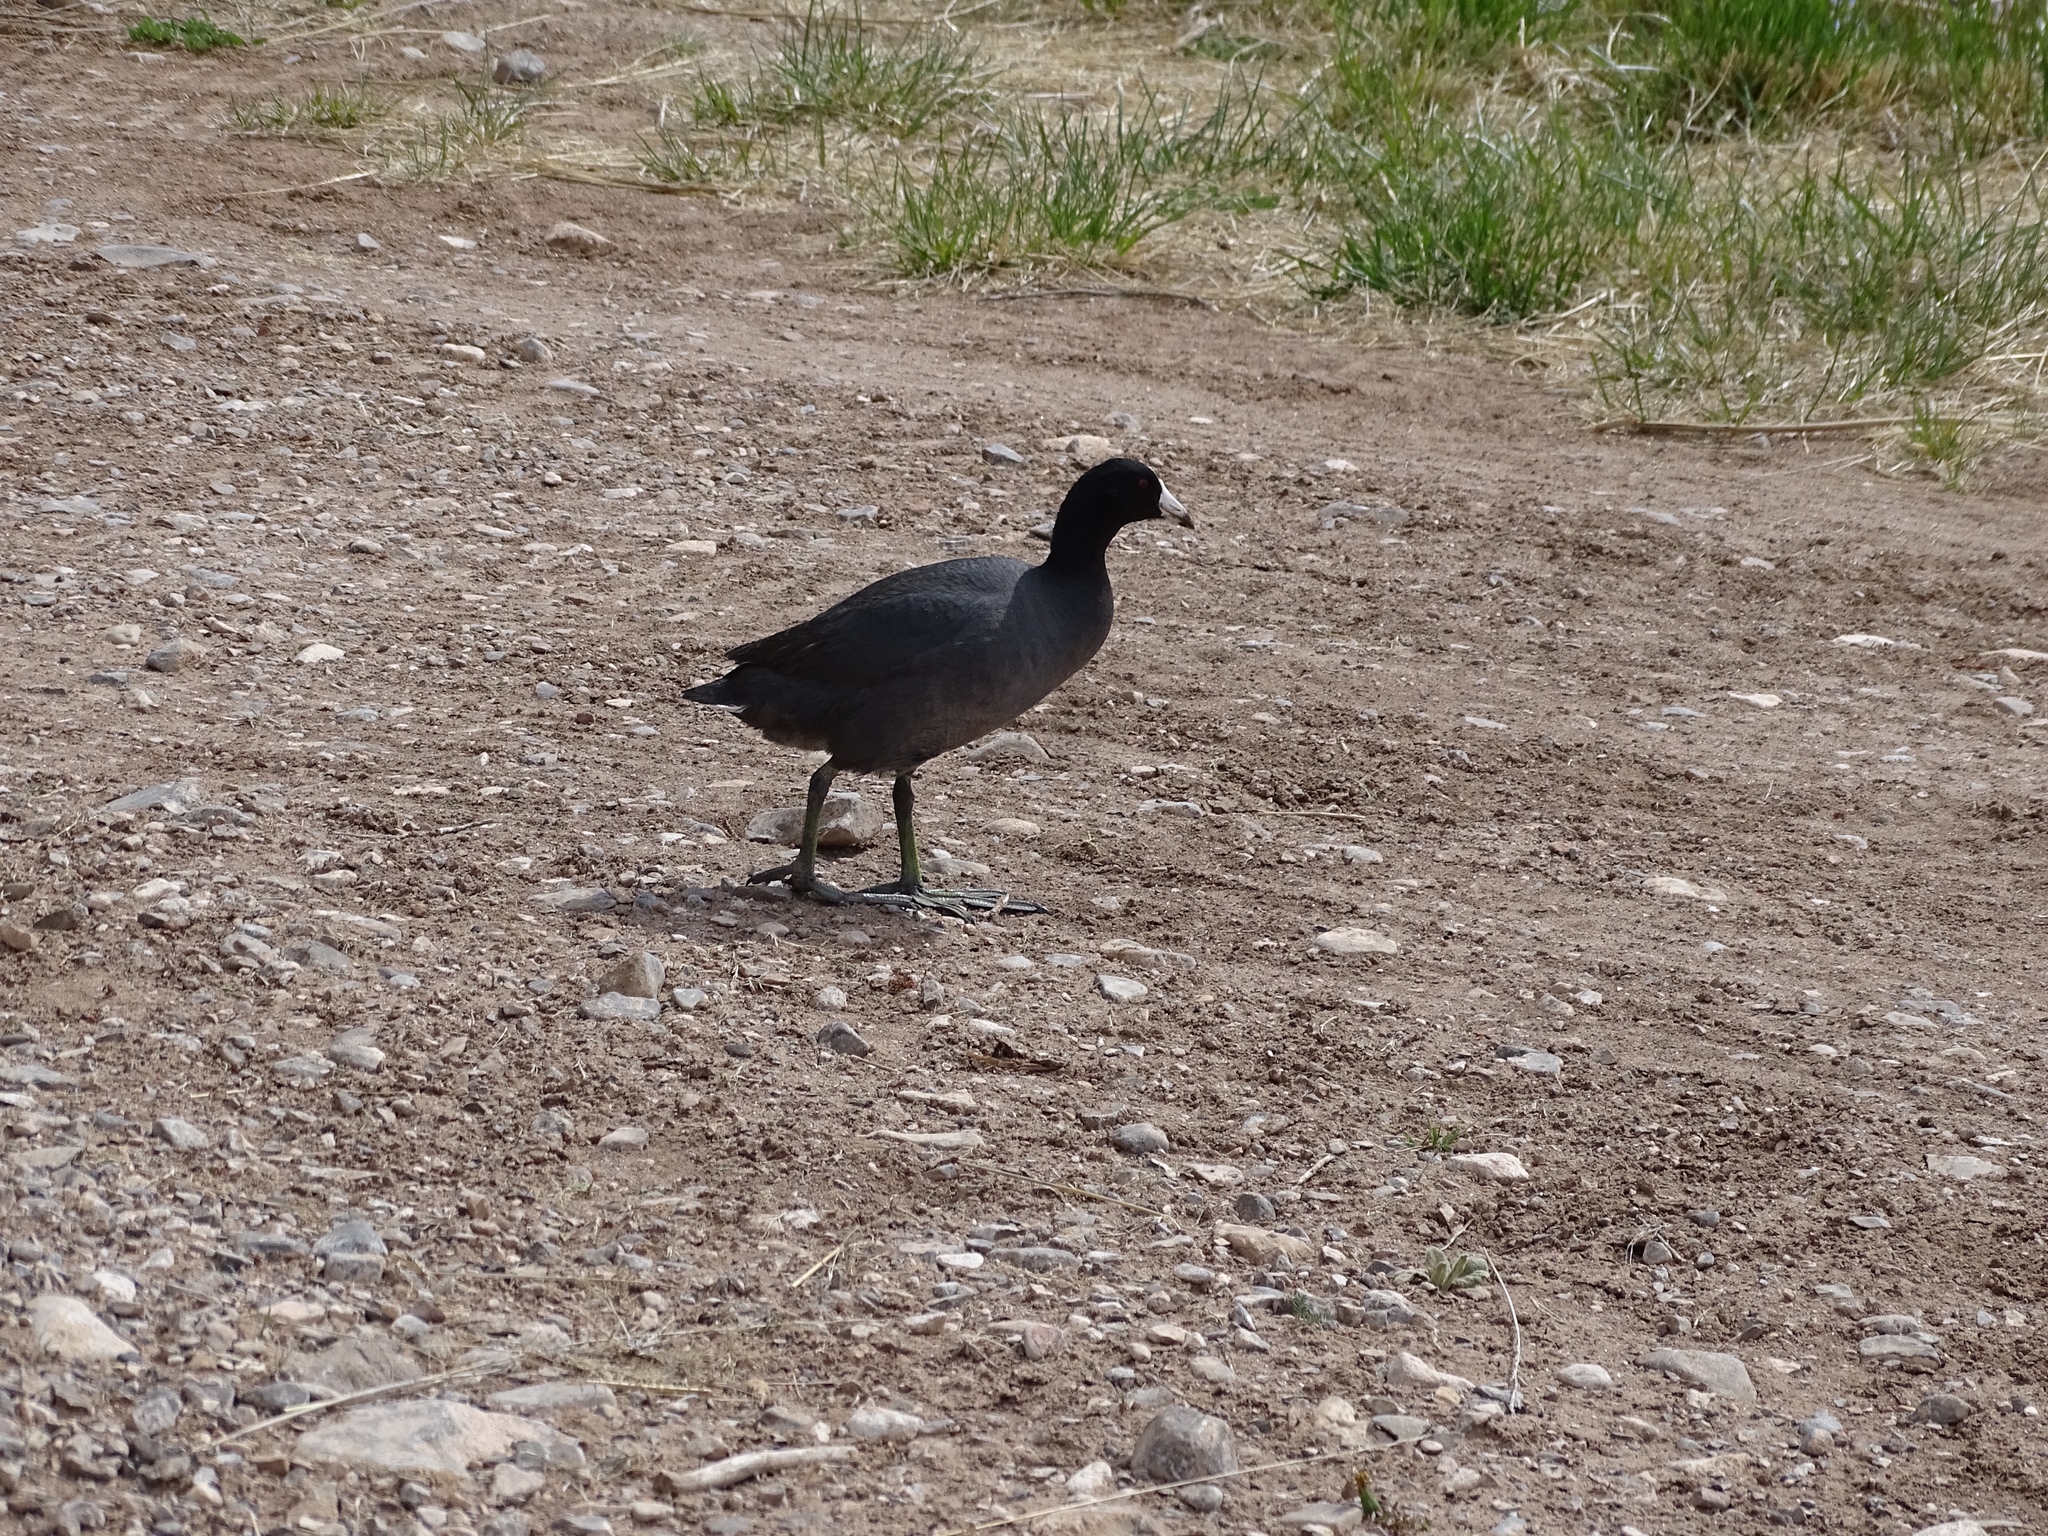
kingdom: Animalia
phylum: Chordata
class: Aves
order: Gruiformes
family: Rallidae
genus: Fulica
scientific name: Fulica americana
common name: American coot
